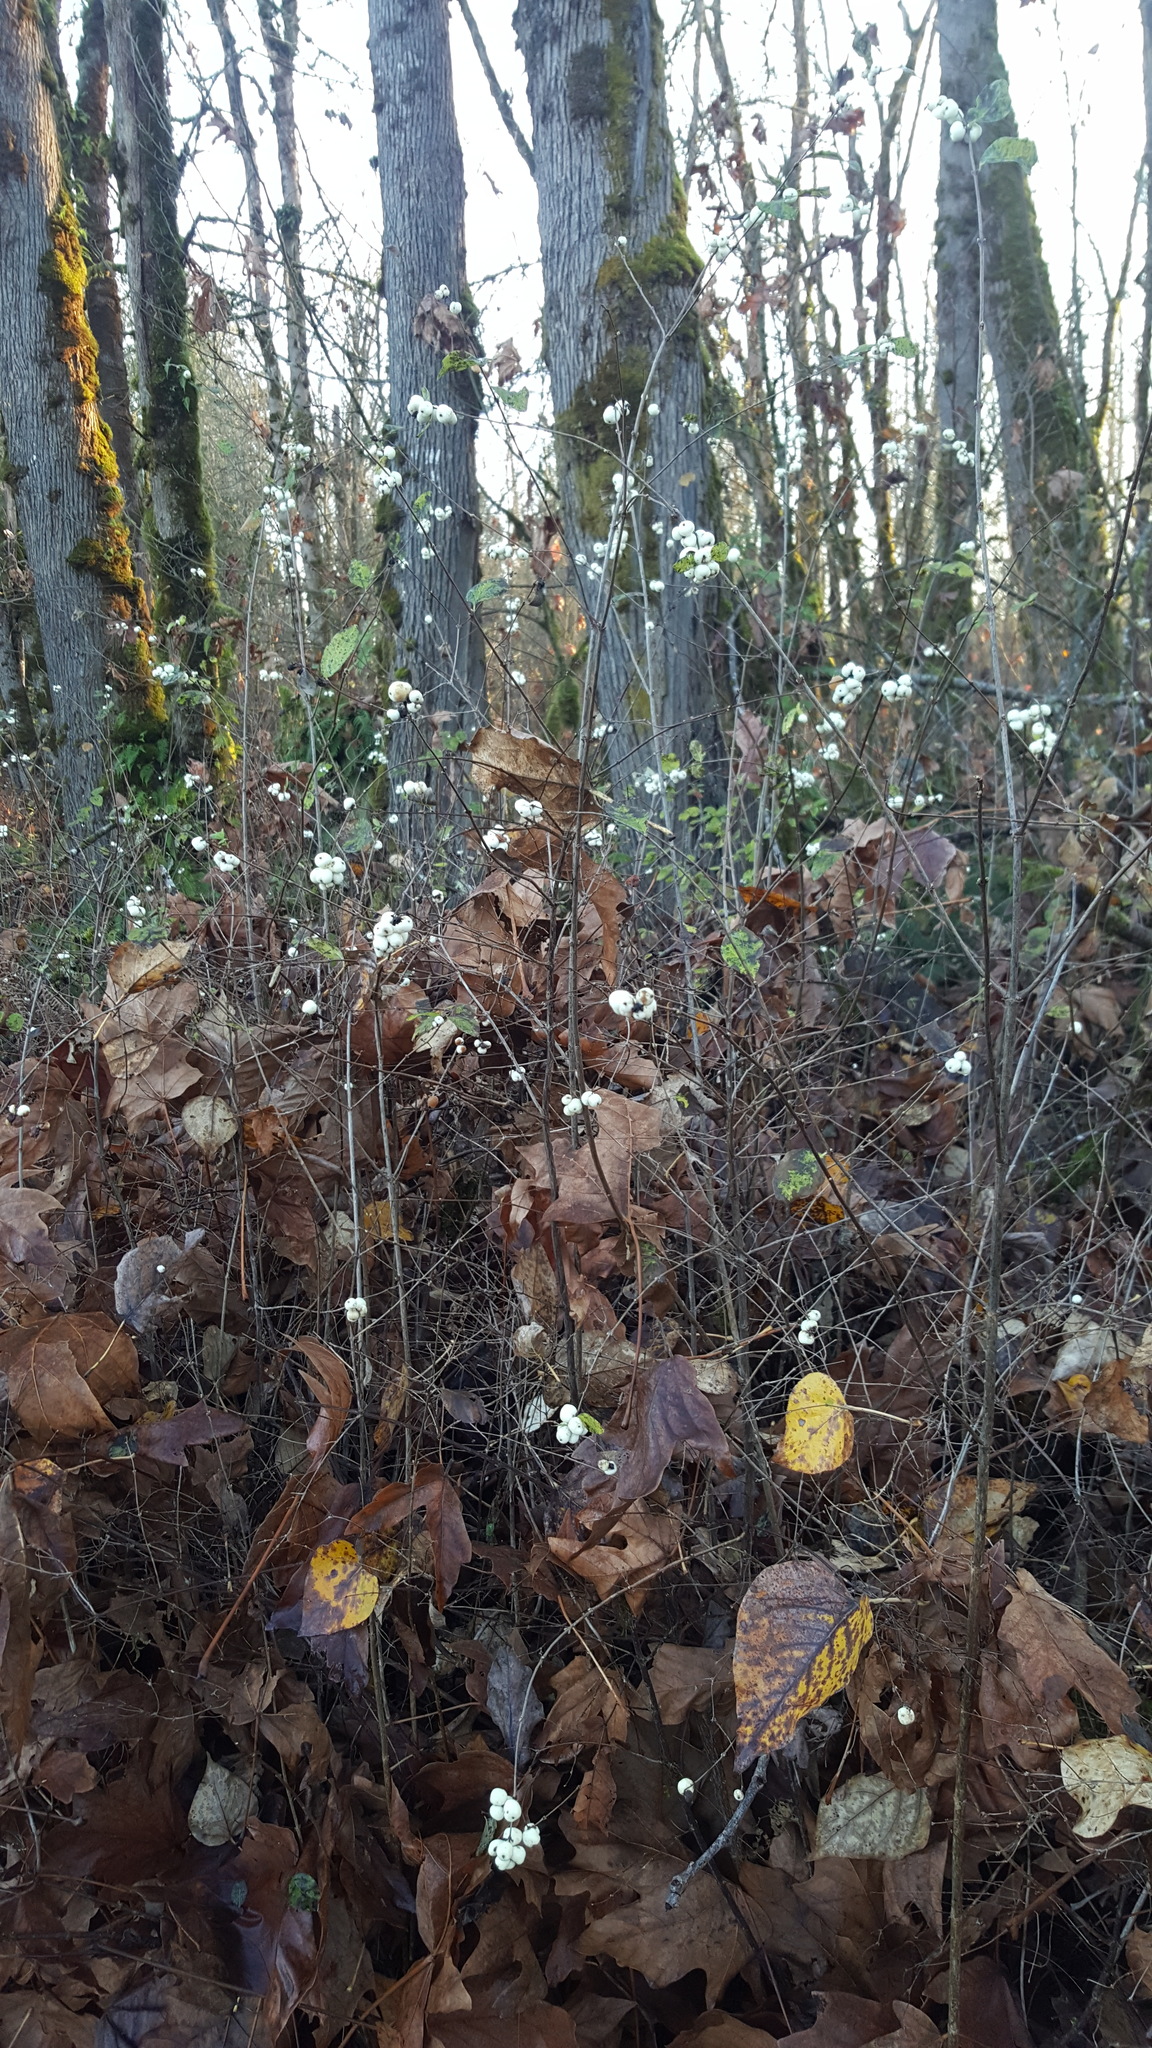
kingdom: Plantae
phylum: Tracheophyta
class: Magnoliopsida
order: Dipsacales
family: Caprifoliaceae
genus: Symphoricarpos
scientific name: Symphoricarpos albus
